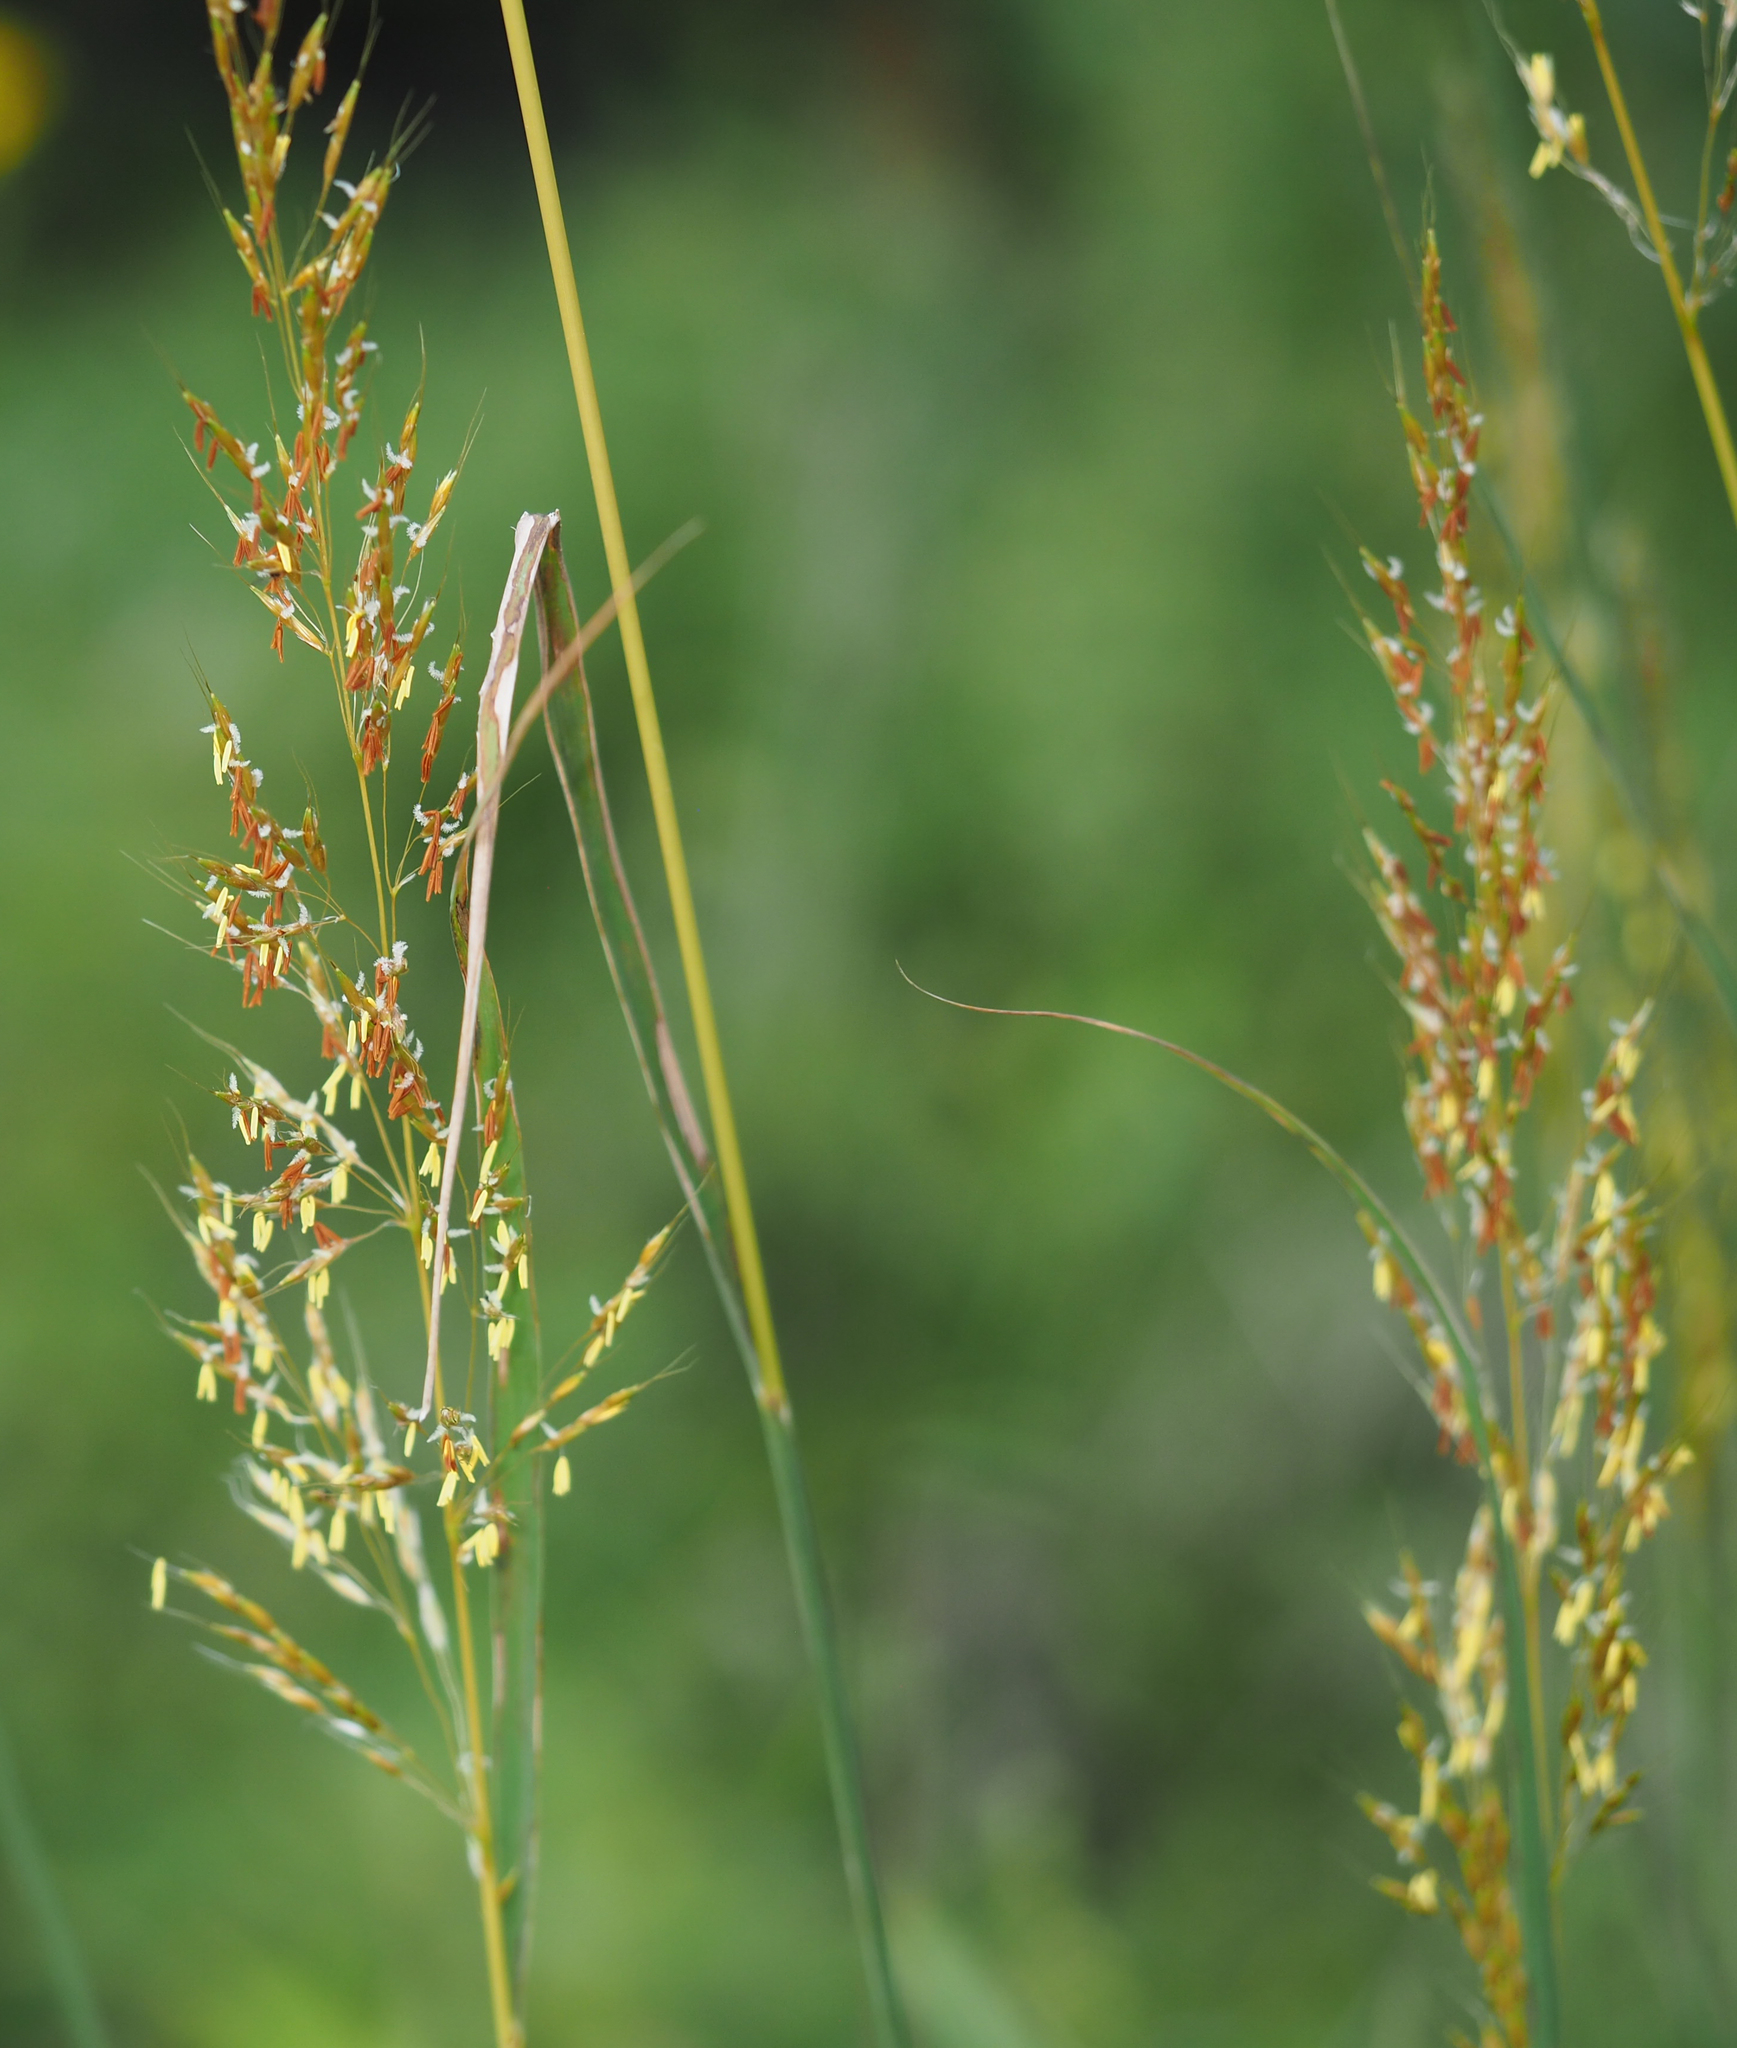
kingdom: Plantae
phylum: Tracheophyta
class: Liliopsida
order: Poales
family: Poaceae
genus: Sorghastrum
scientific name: Sorghastrum nutans
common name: Indian grass
